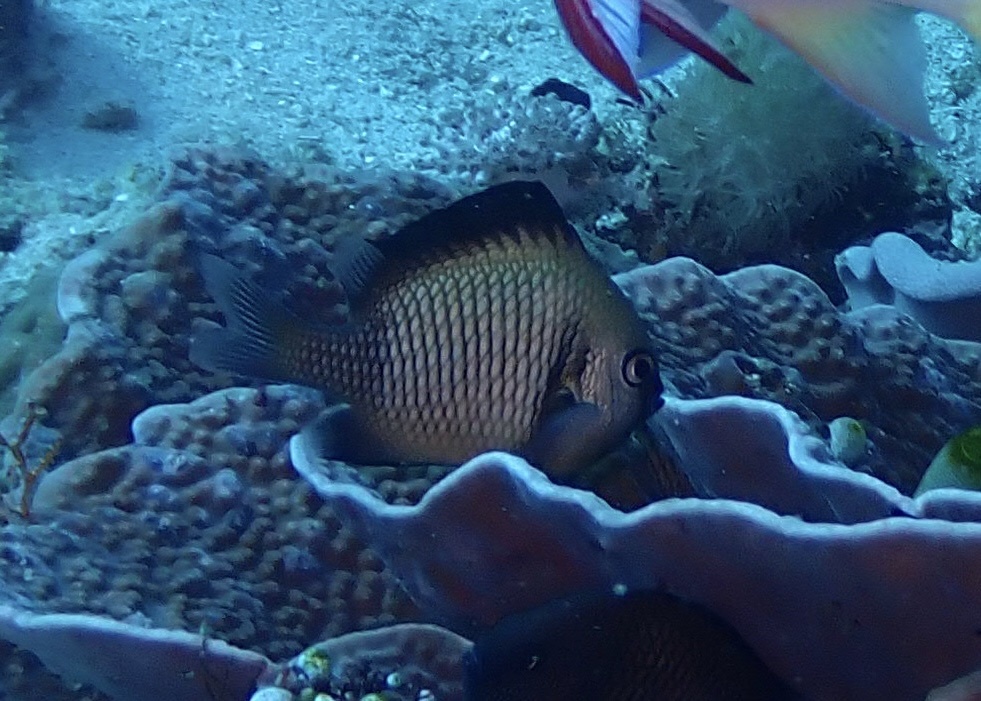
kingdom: Animalia
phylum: Chordata
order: Perciformes
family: Pomacentridae
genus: Dascyllus
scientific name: Dascyllus reticulatus
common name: Reticulated dascyllus
